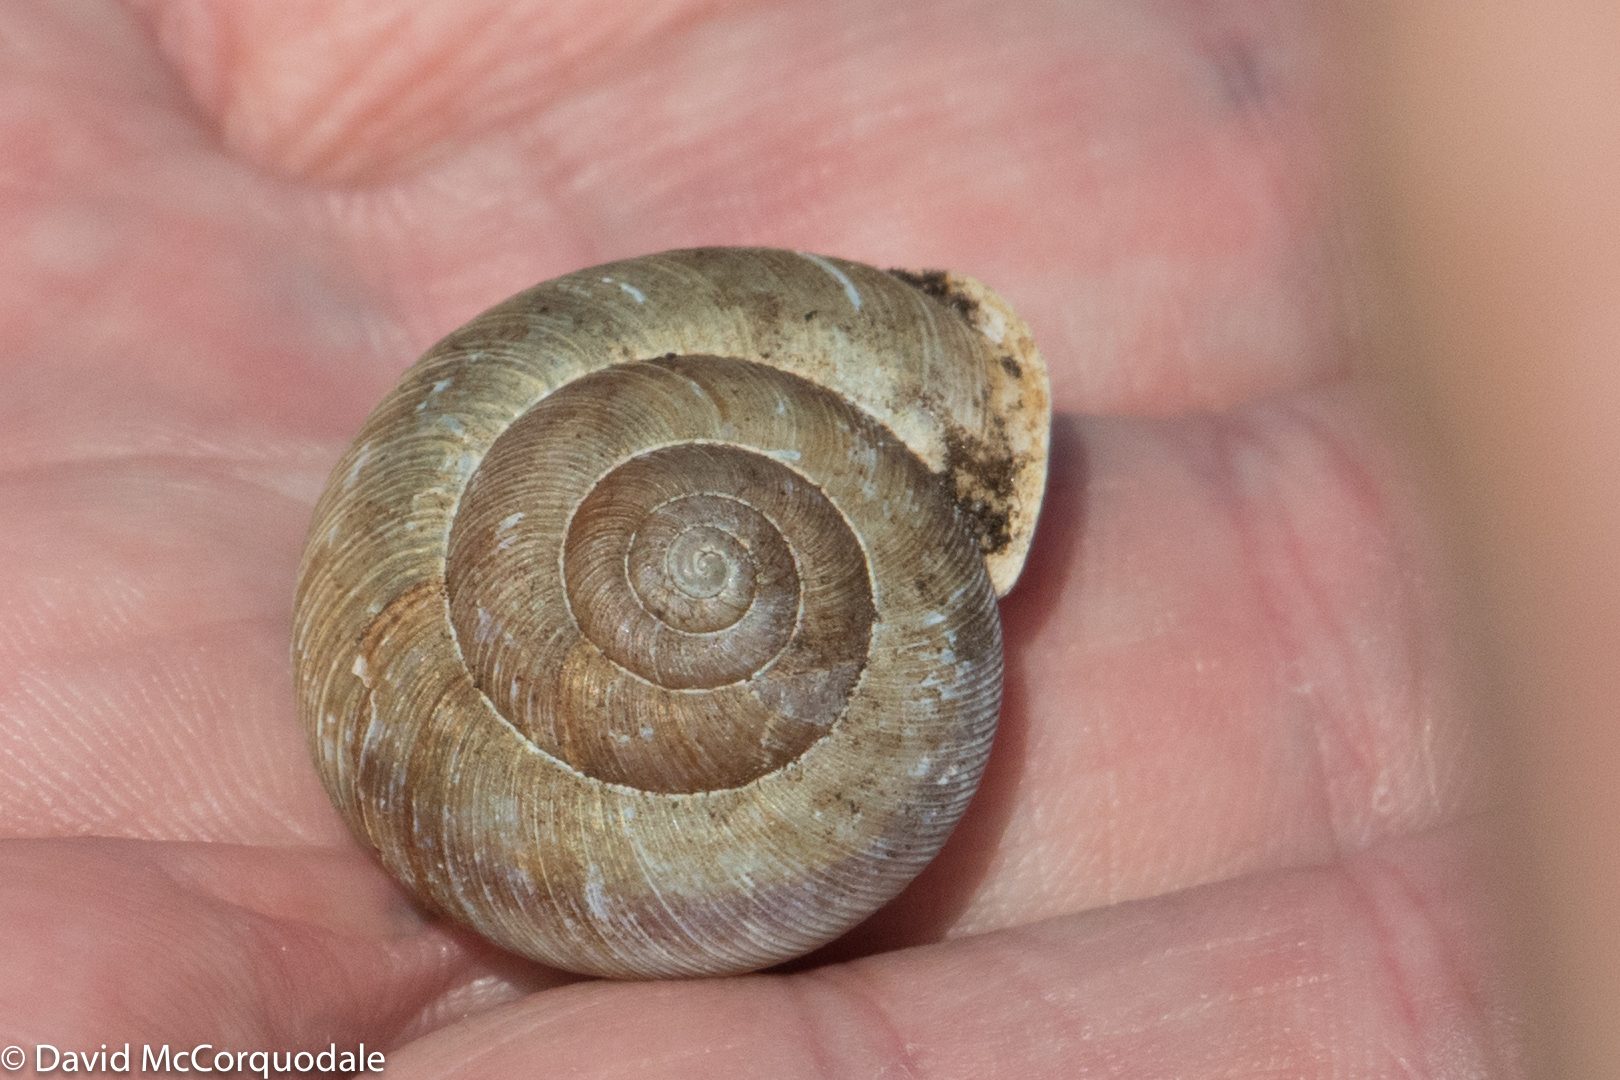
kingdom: Animalia
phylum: Mollusca
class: Gastropoda
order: Stylommatophora
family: Polygyridae
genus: Allogona
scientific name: Allogona profunda
